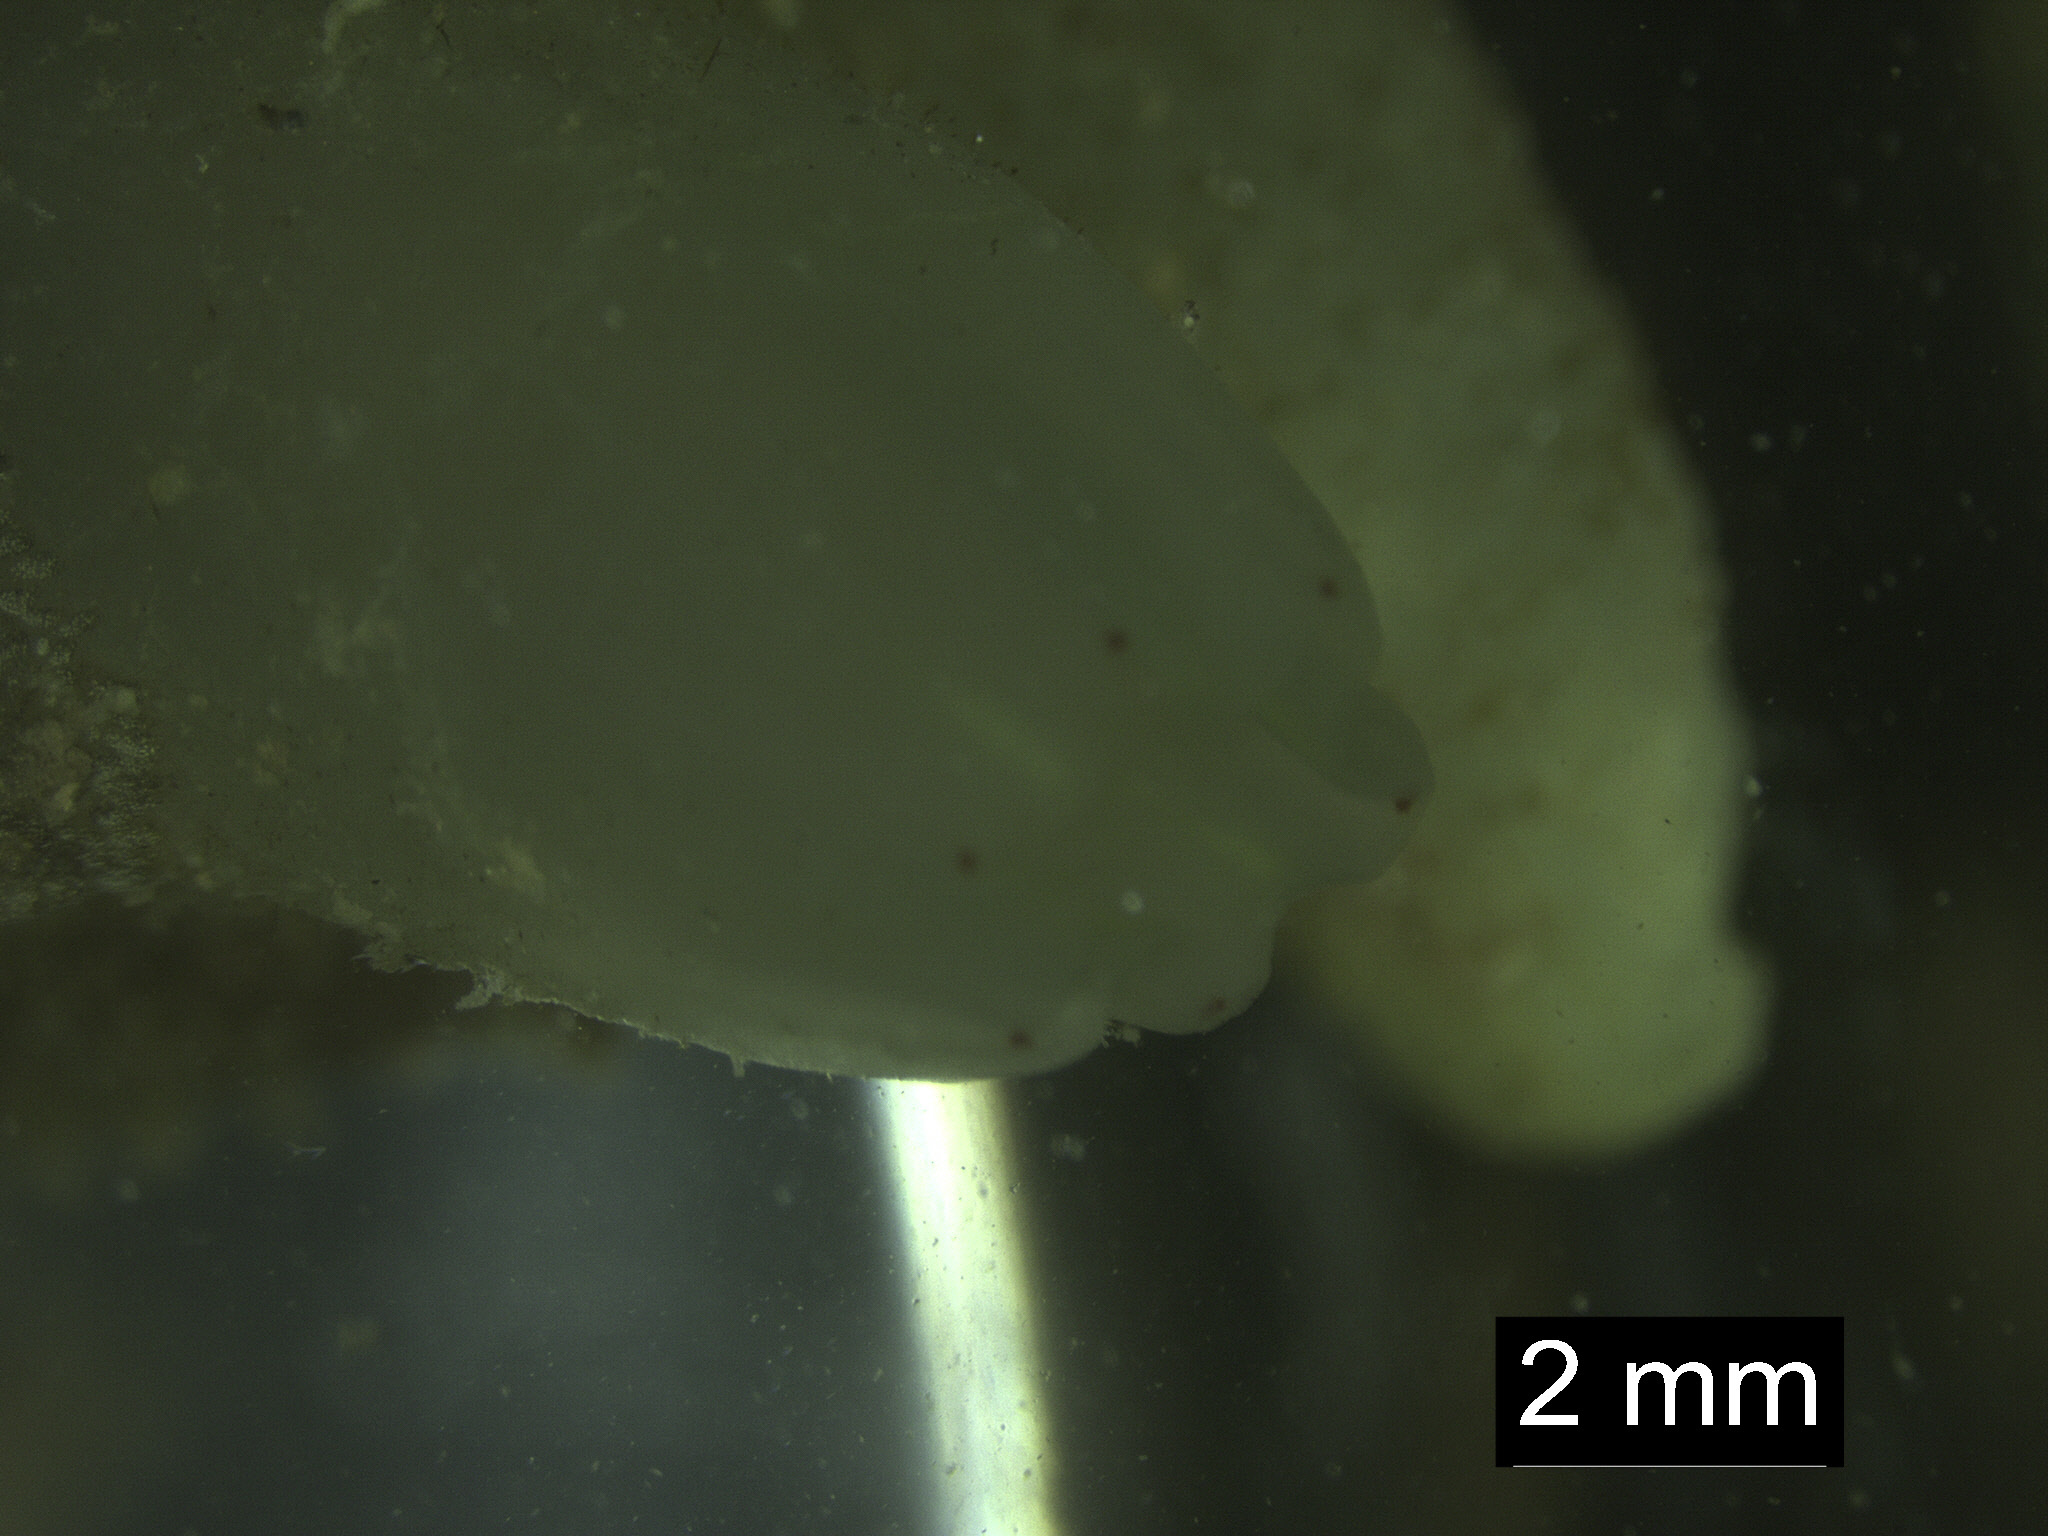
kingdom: Animalia
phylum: Chordata
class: Ascidiacea
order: Phlebobranchia
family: Cionidae
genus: Ciona
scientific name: Ciona intestinalis
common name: Vase tunicate
